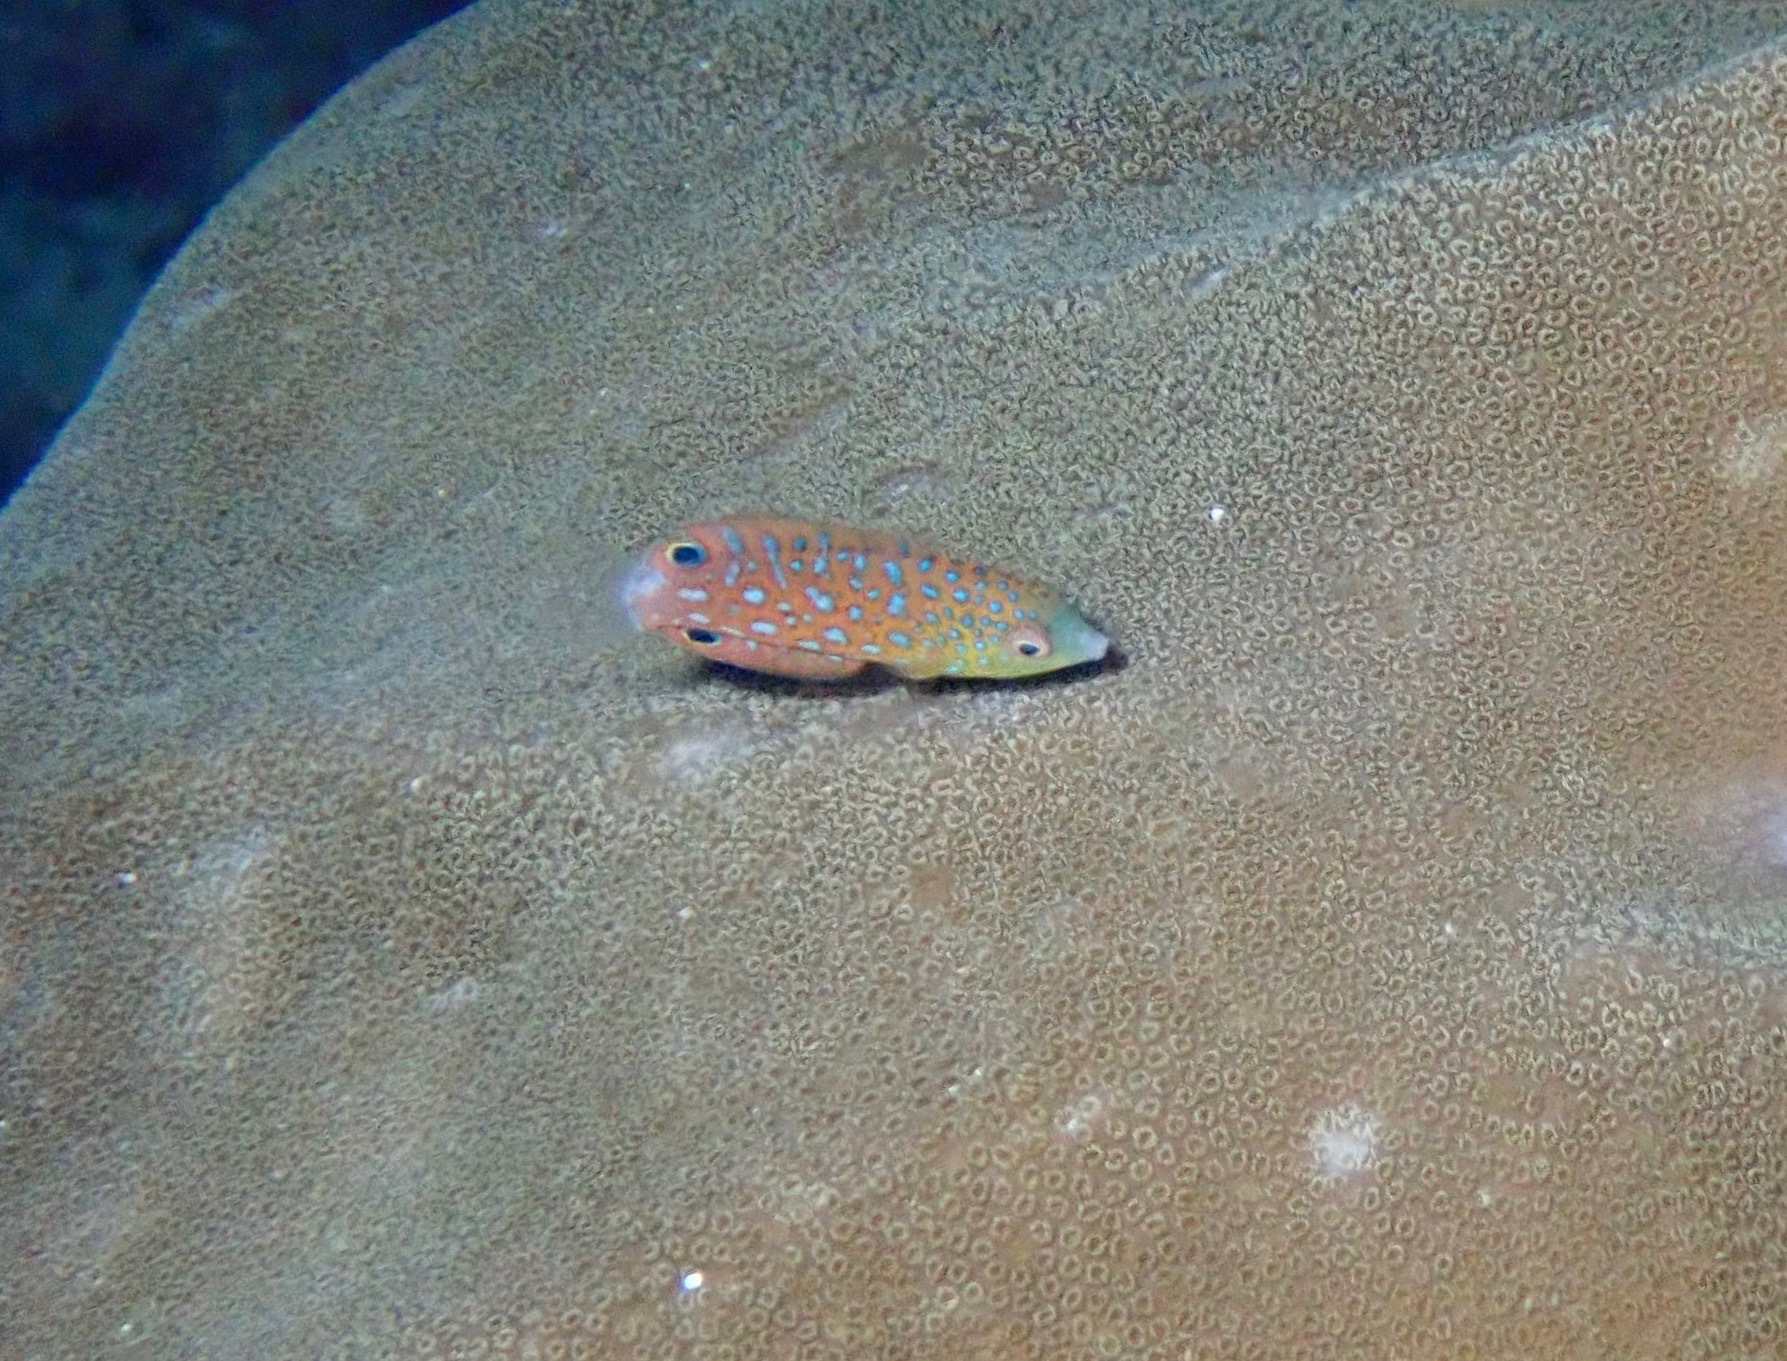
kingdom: Animalia
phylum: Chordata
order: Perciformes
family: Labridae
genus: Anampses
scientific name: Anampses twistii
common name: Yellowbreasted wrasse
